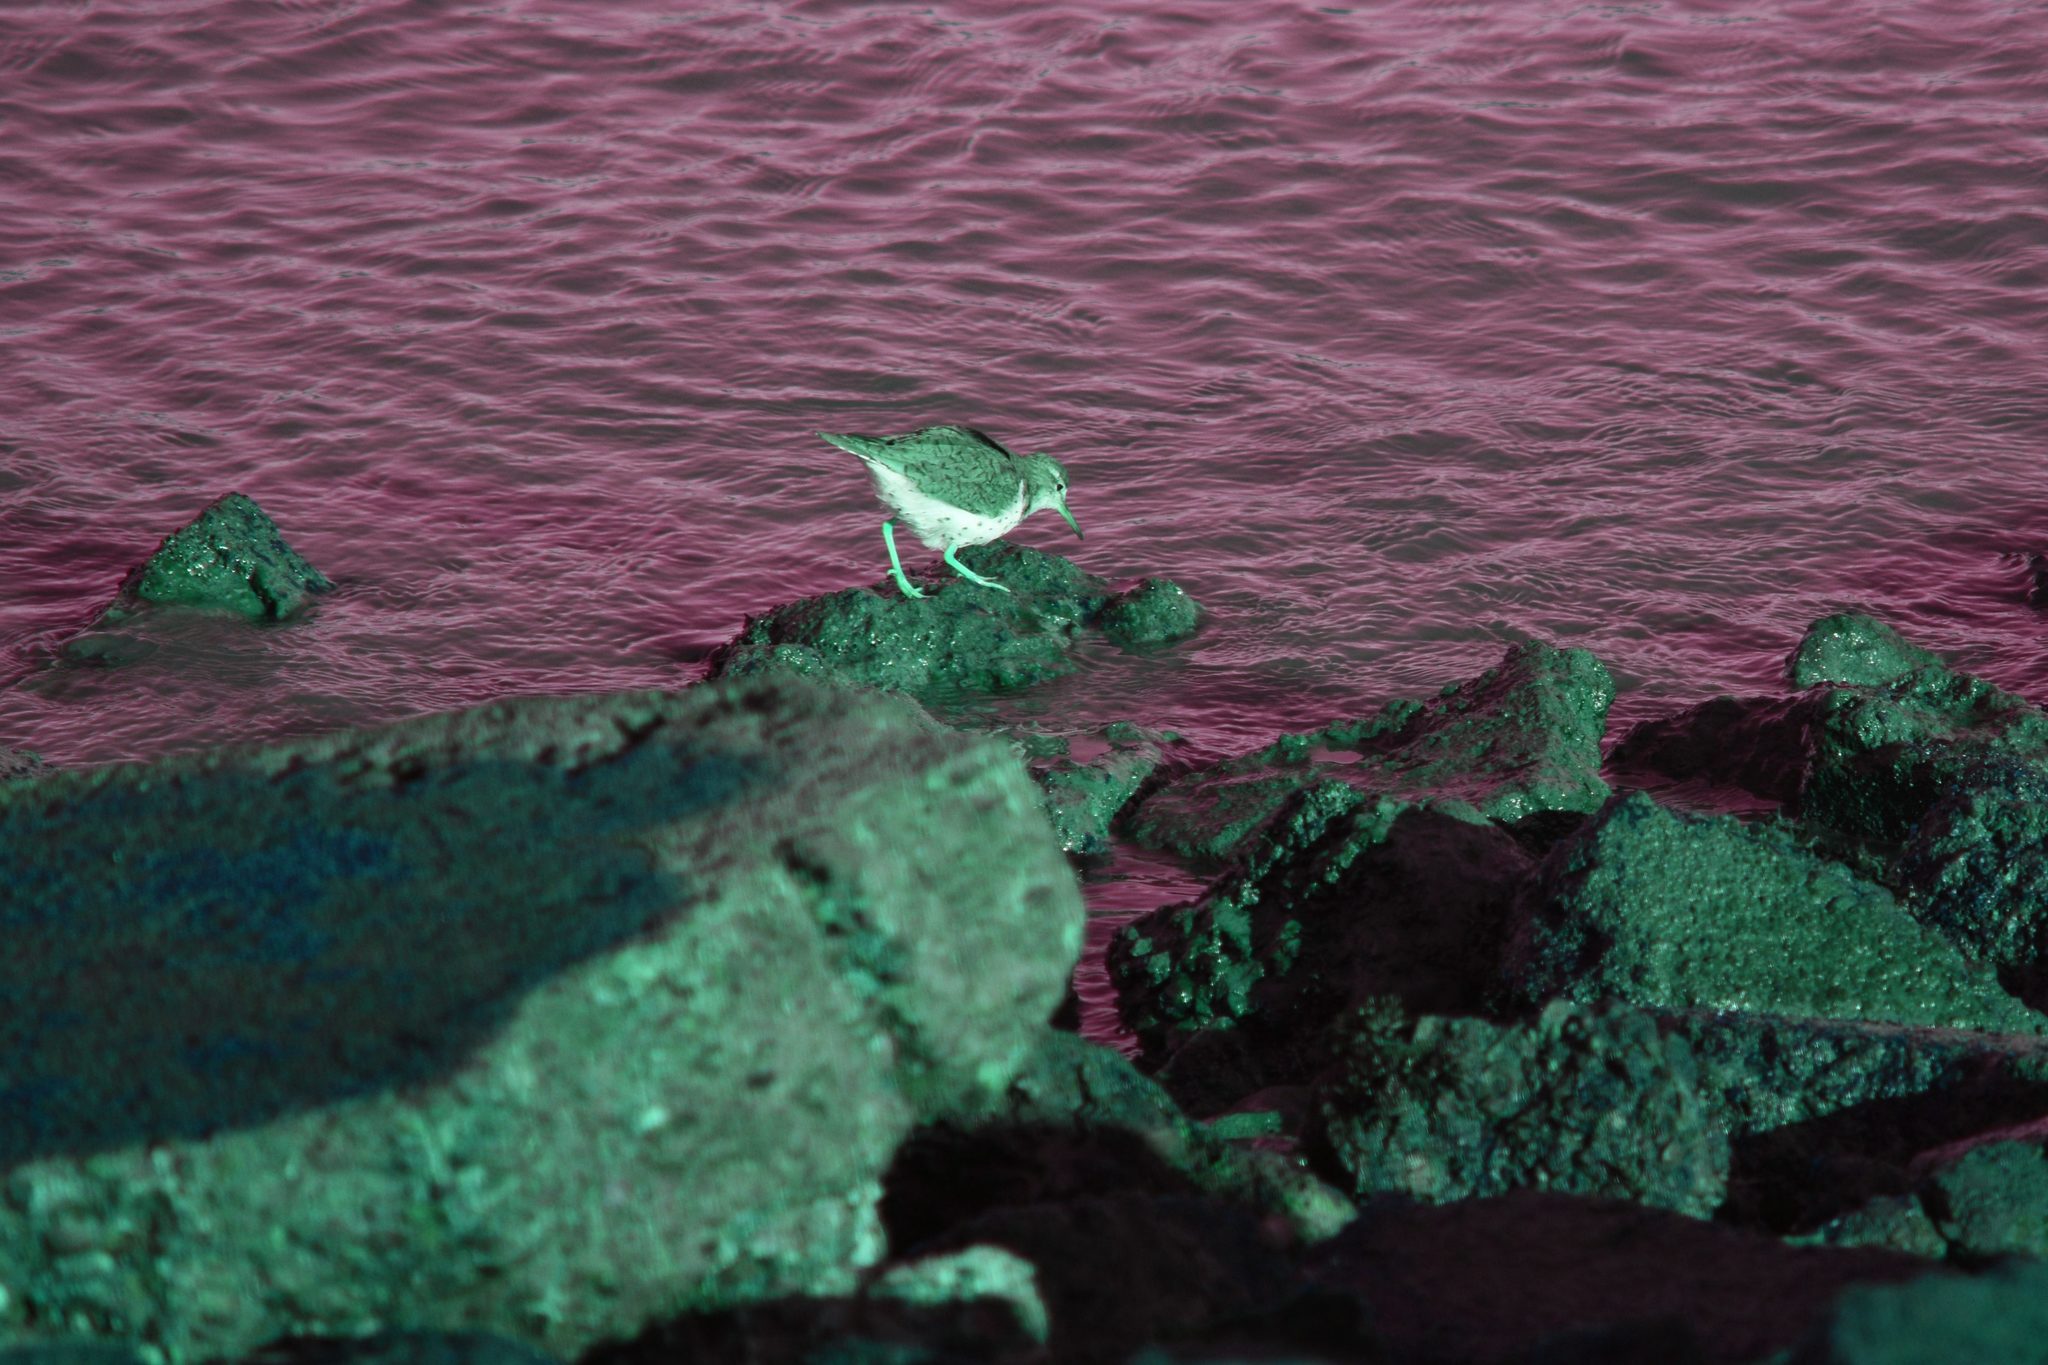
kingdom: Animalia
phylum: Chordata
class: Aves
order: Charadriiformes
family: Scolopacidae
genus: Actitis
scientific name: Actitis macularius
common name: Spotted sandpiper
